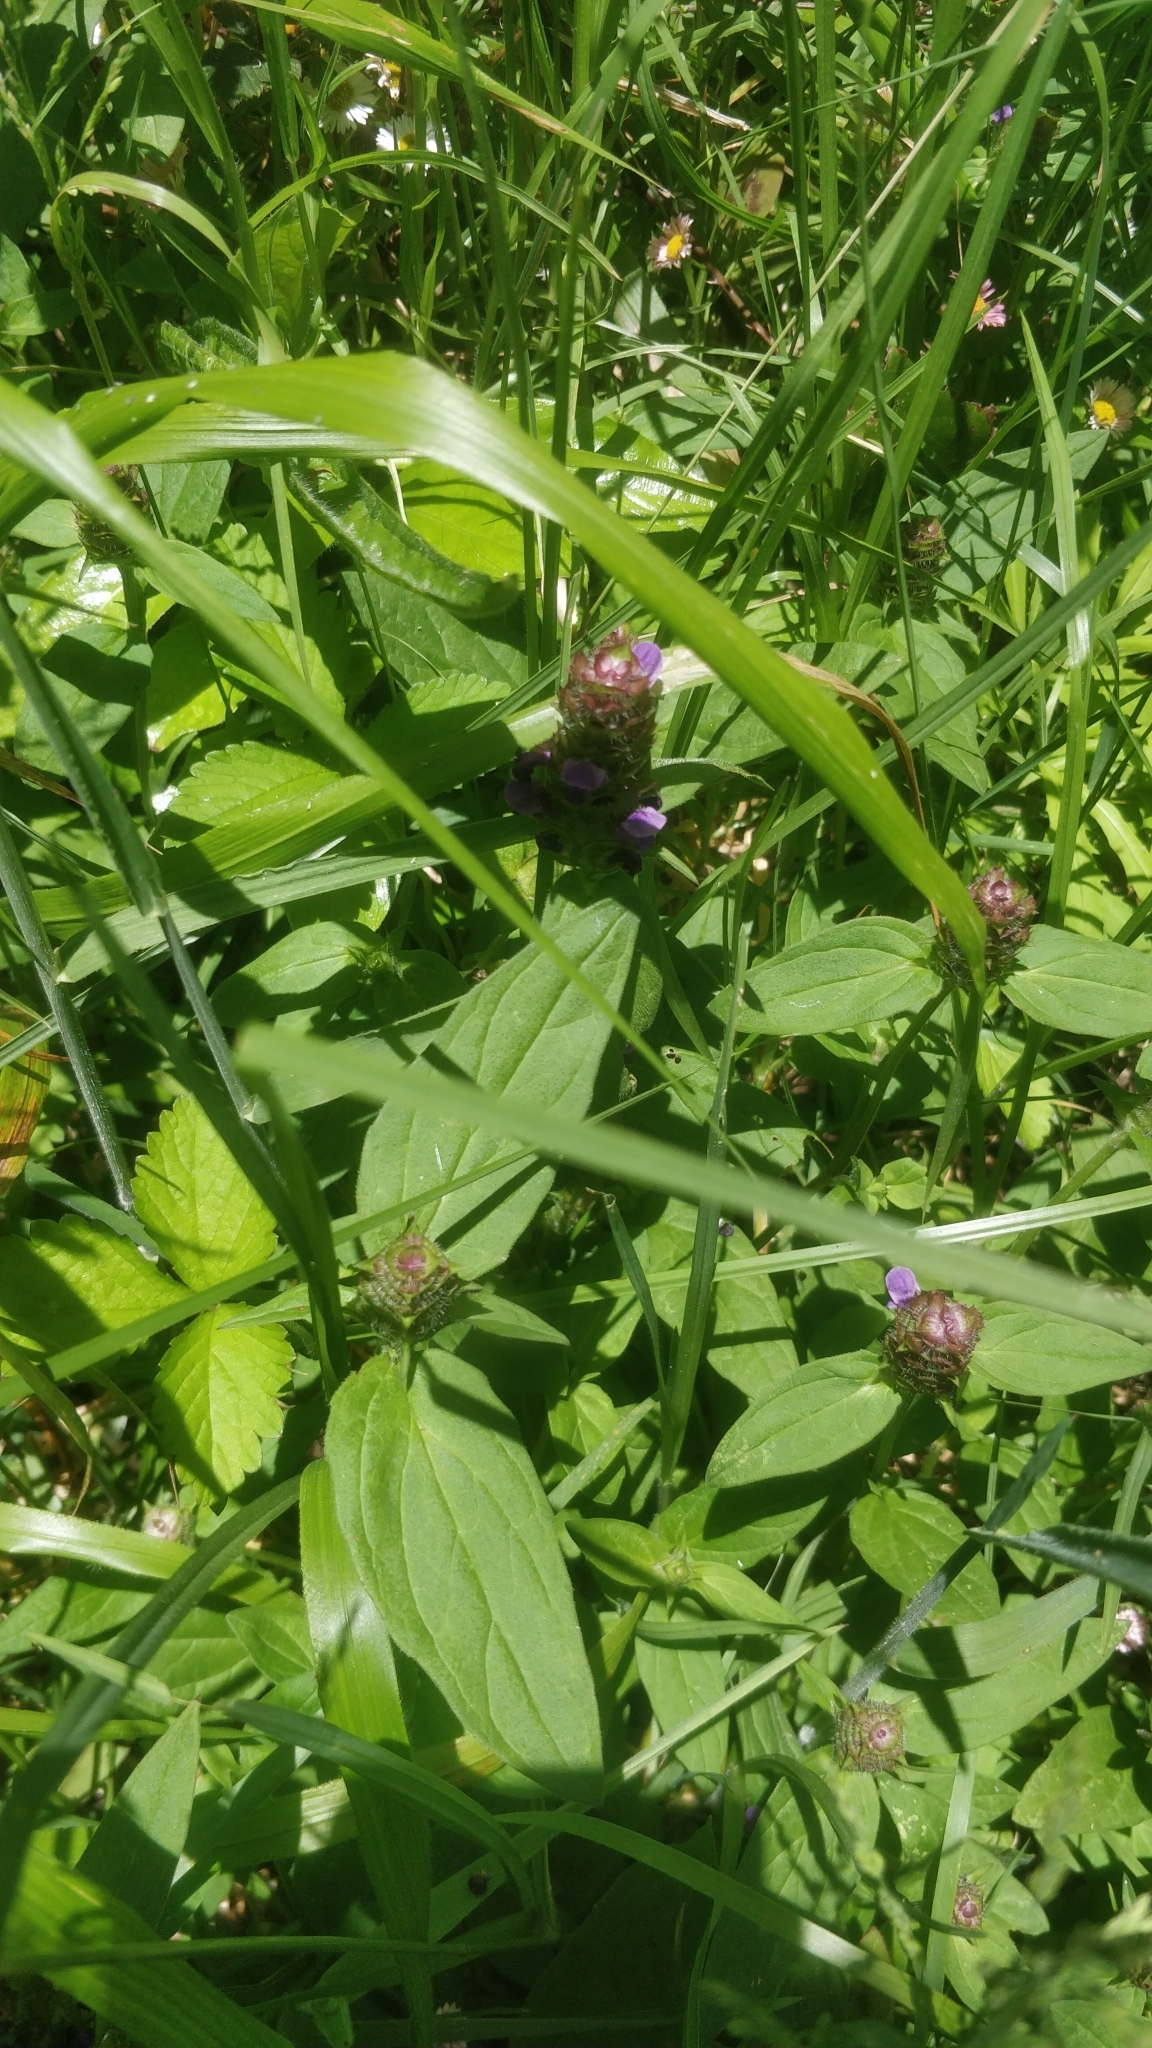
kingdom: Plantae
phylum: Tracheophyta
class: Magnoliopsida
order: Lamiales
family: Lamiaceae
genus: Prunella
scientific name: Prunella vulgaris
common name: Heal-all
